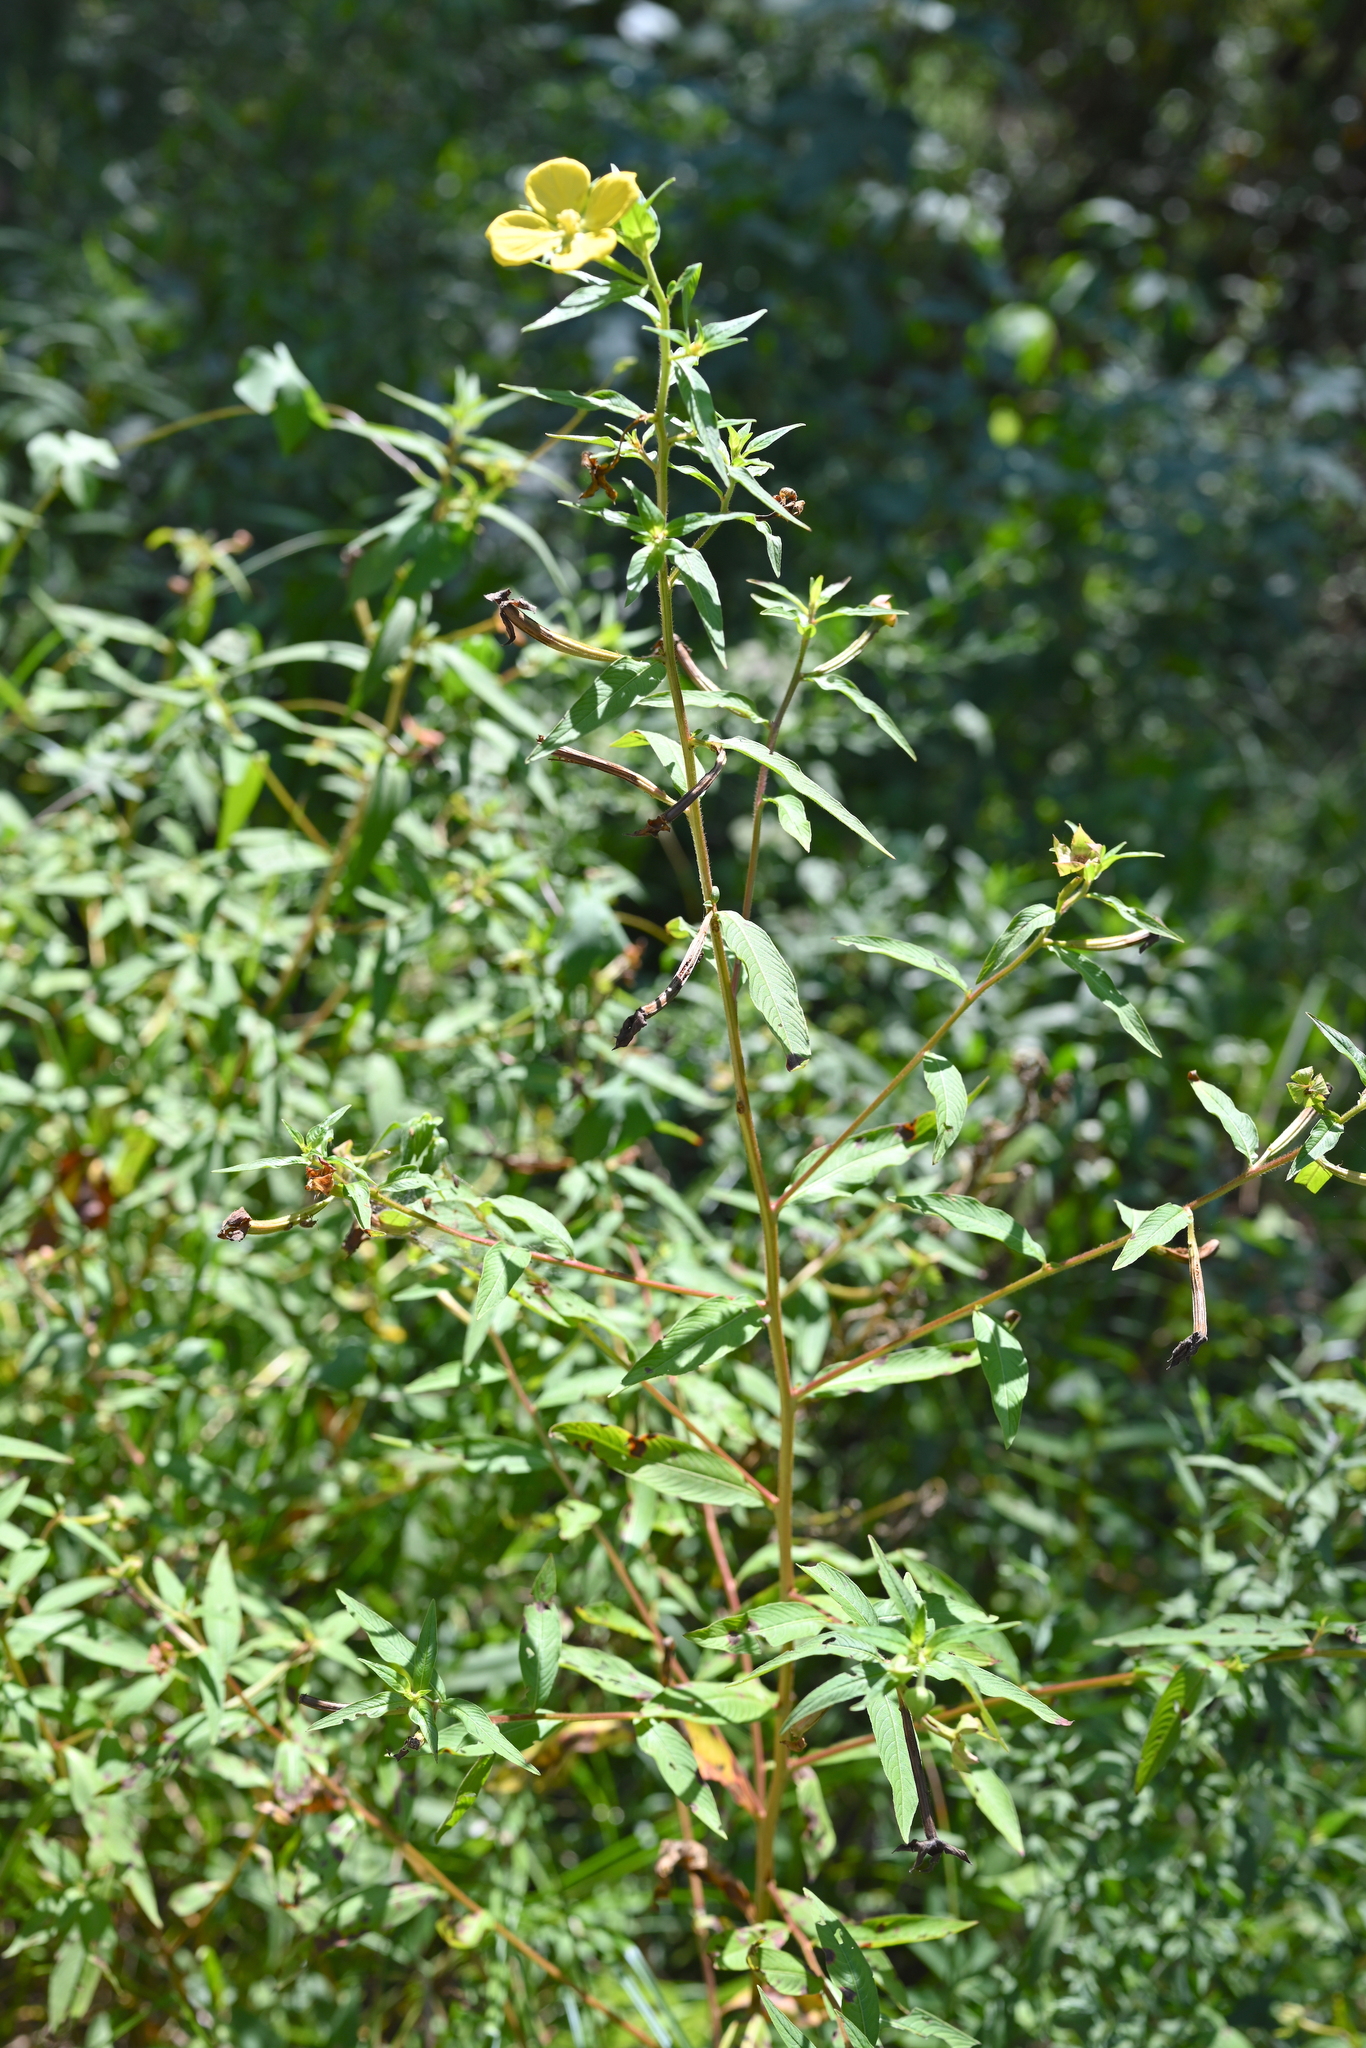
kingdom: Plantae
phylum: Tracheophyta
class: Magnoliopsida
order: Myrtales
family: Onagraceae
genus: Ludwigia
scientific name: Ludwigia octovalvis
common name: Water-primrose
